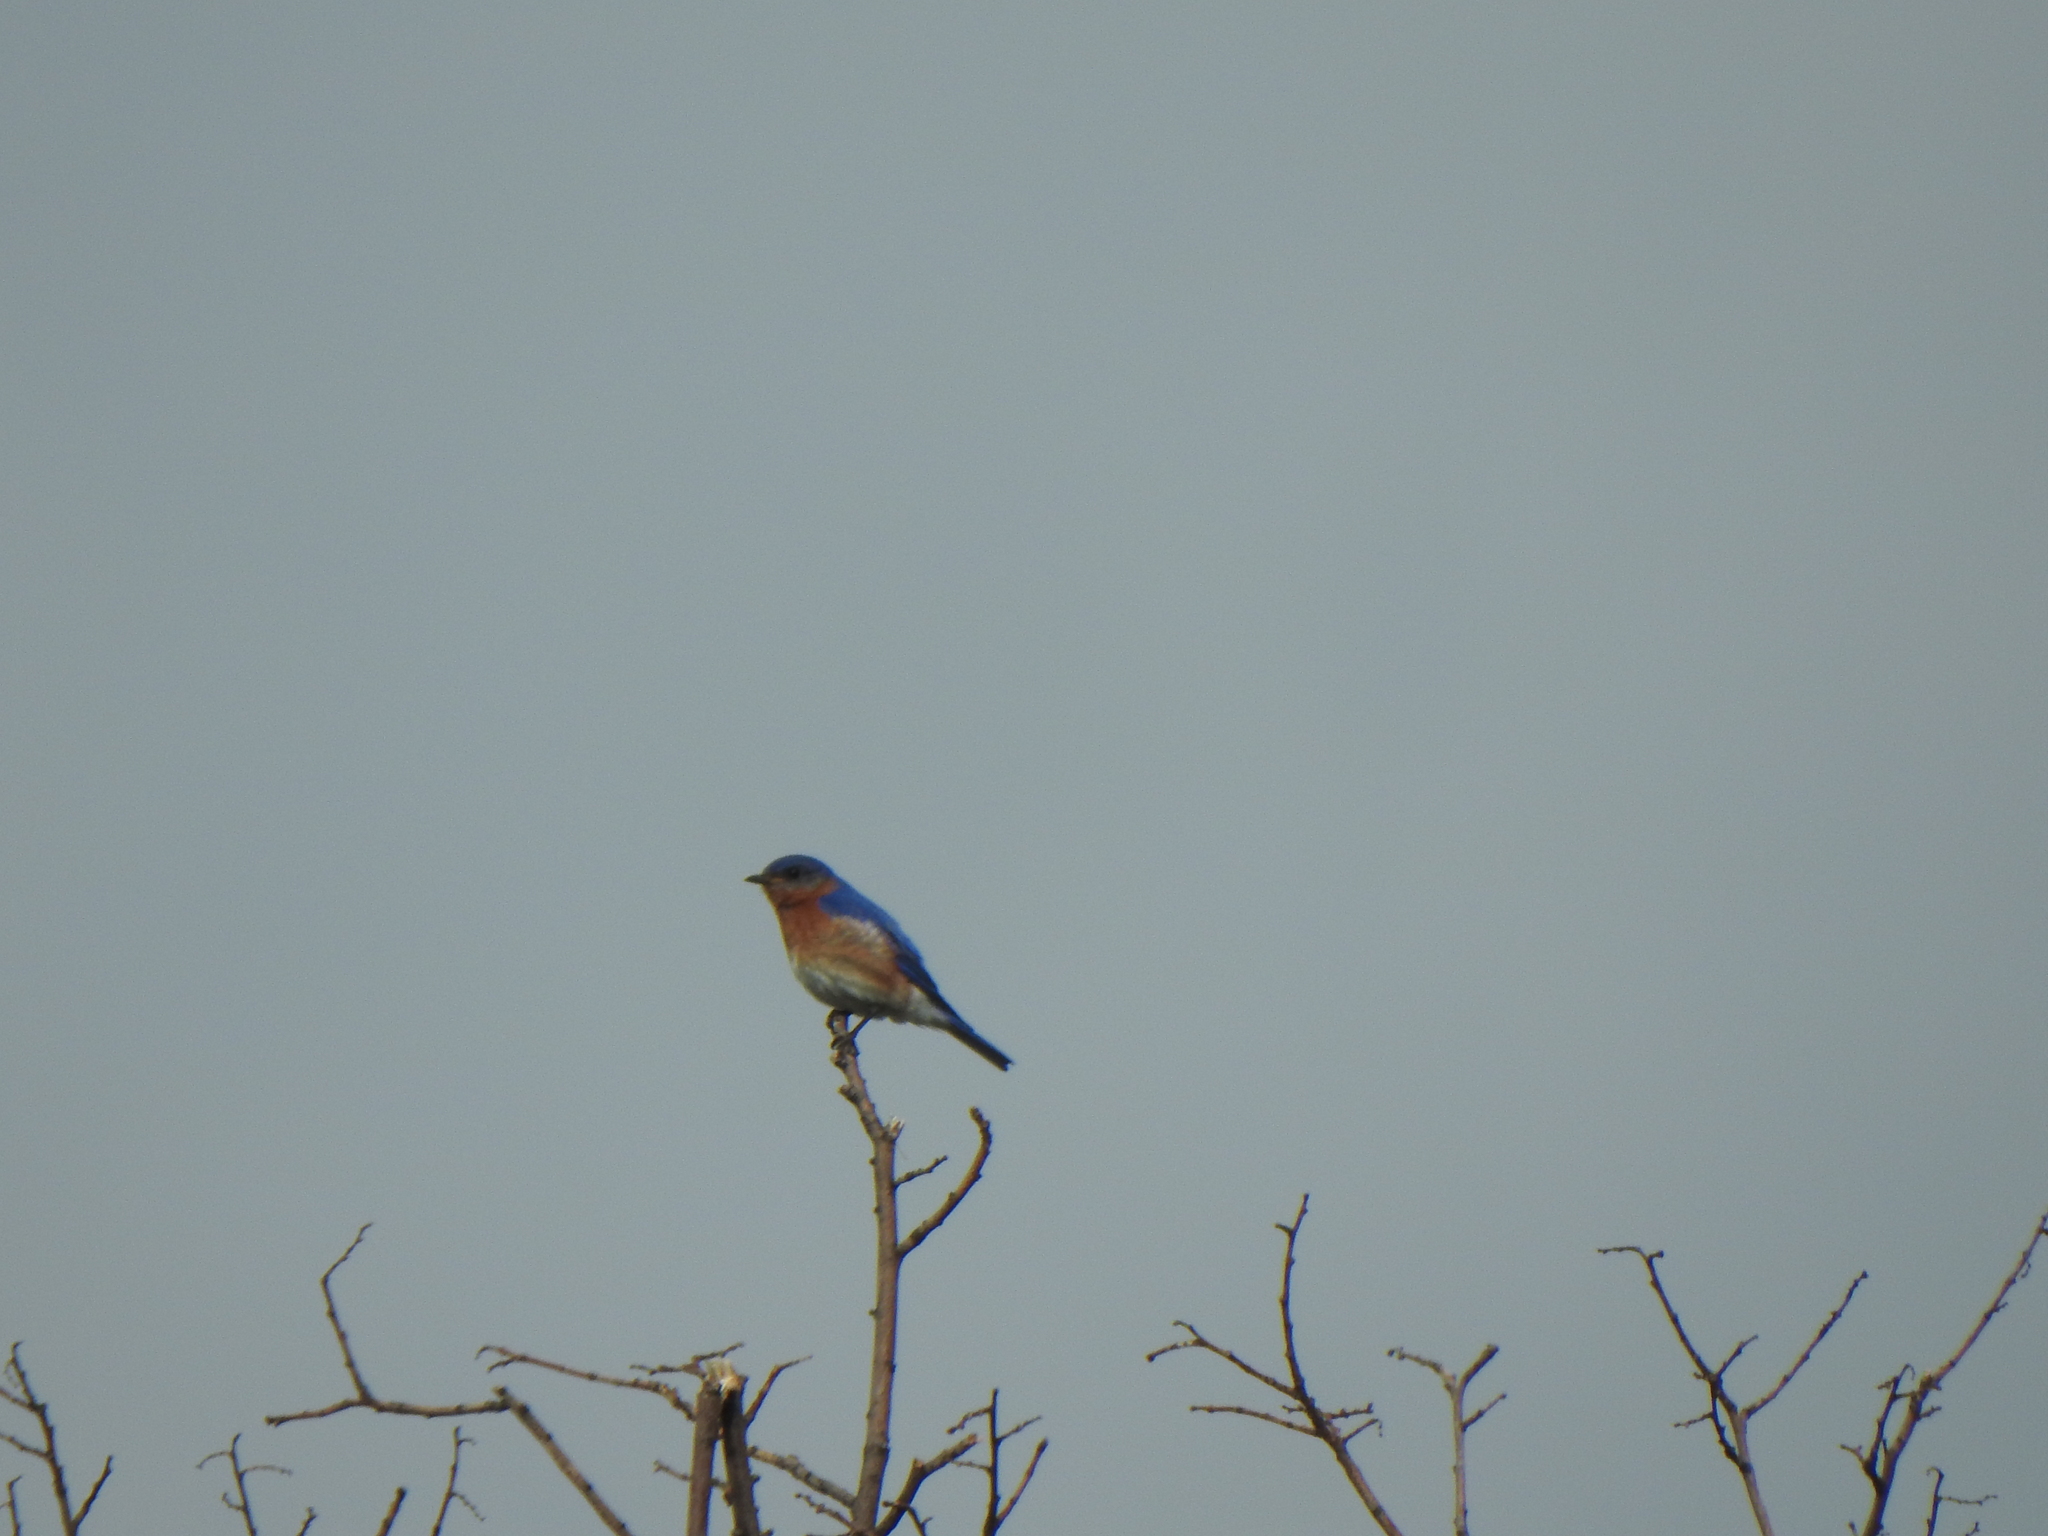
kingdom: Animalia
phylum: Chordata
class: Aves
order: Passeriformes
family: Turdidae
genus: Sialia
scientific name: Sialia sialis
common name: Eastern bluebird
